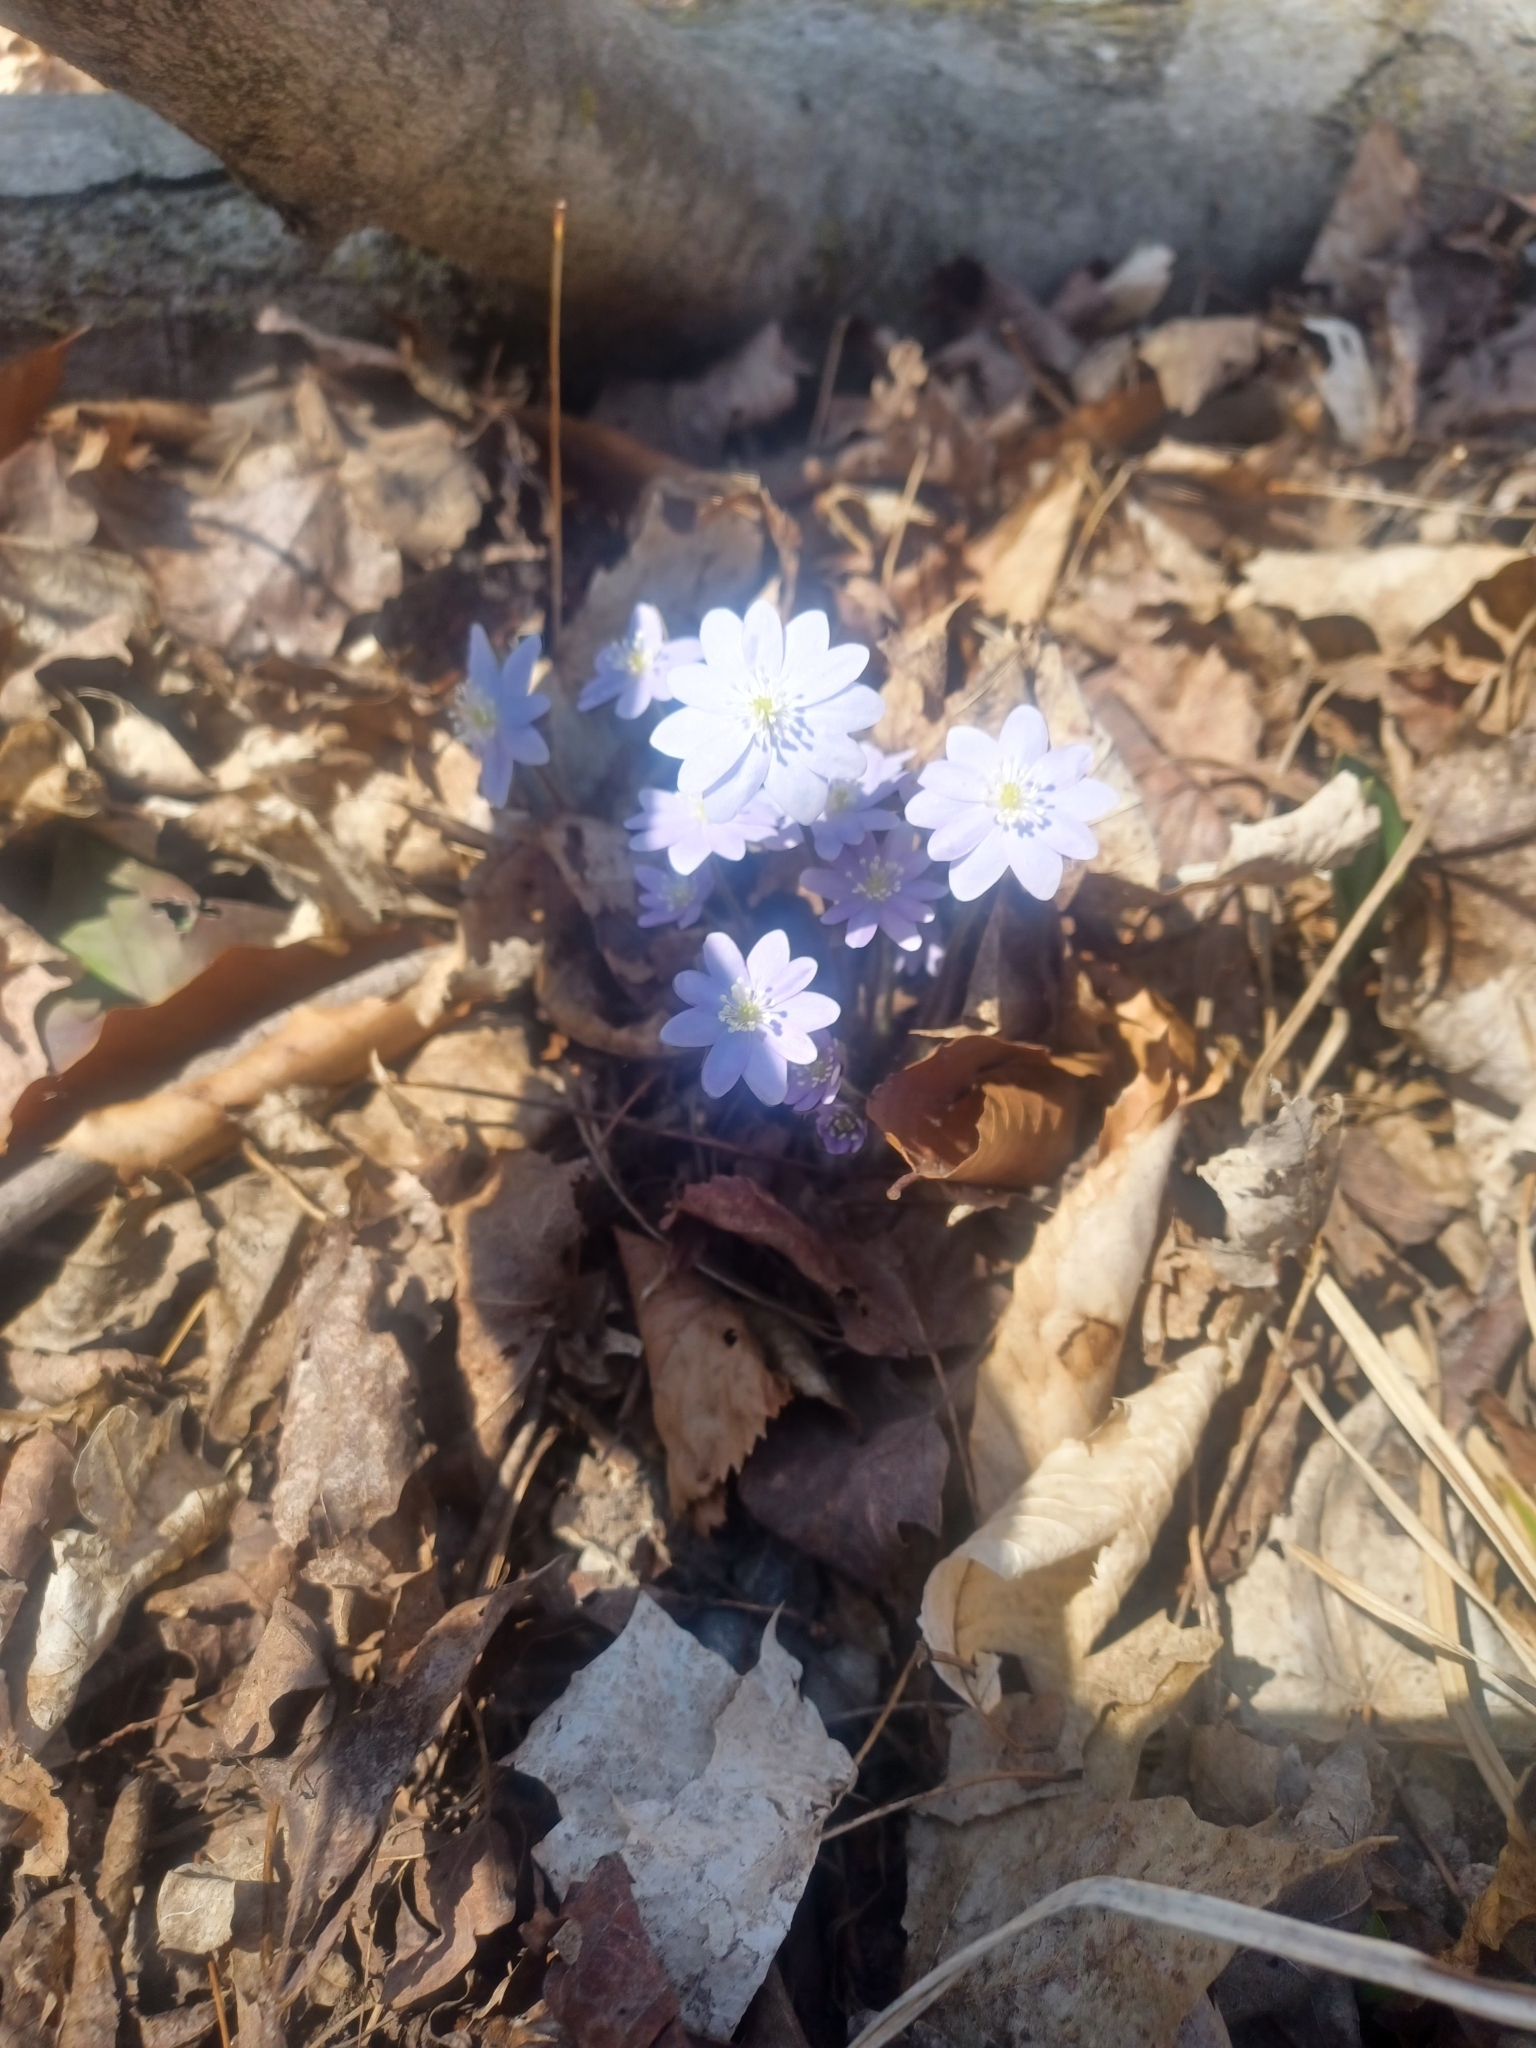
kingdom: Plantae
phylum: Tracheophyta
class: Magnoliopsida
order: Ranunculales
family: Ranunculaceae
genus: Hepatica
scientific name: Hepatica acutiloba
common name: Sharp-lobed hepatica
